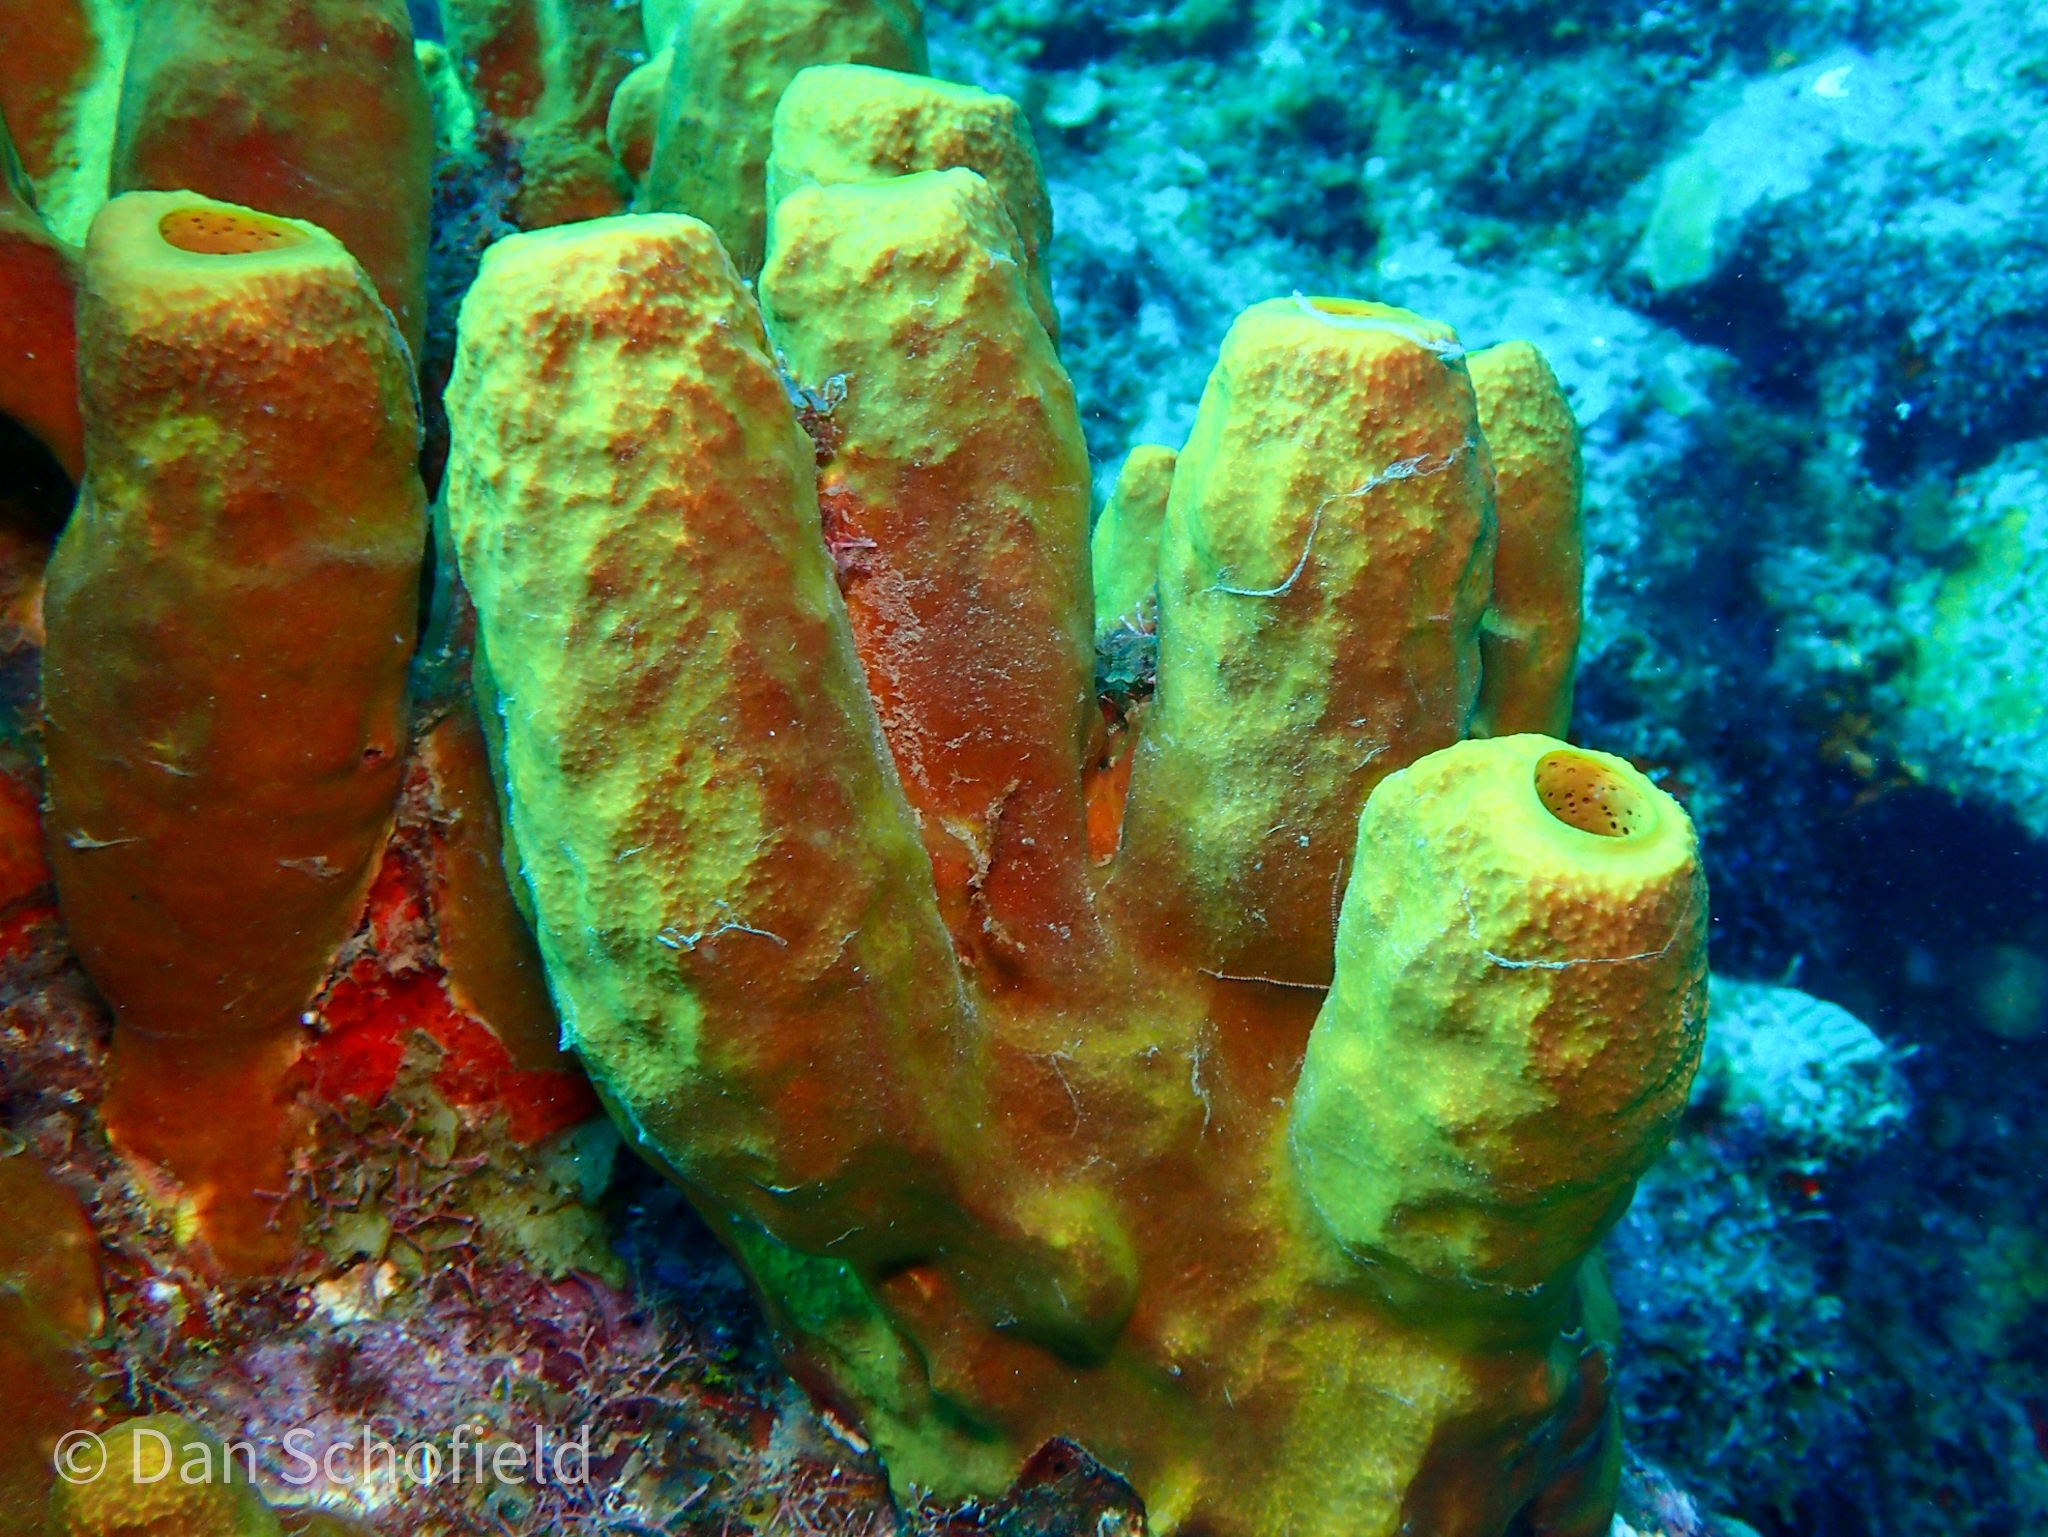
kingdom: Animalia
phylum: Porifera
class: Demospongiae
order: Verongiida
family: Aplysinidae
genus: Aplysina
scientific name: Aplysina fistularis
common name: Candle sponge
